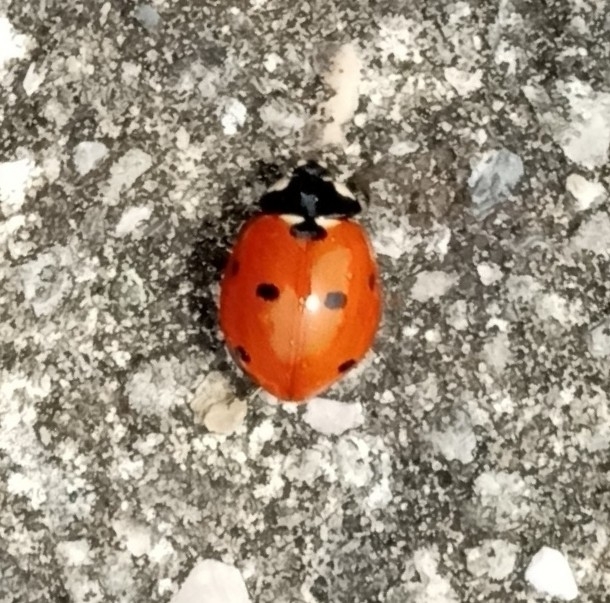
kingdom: Animalia
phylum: Arthropoda
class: Insecta
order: Coleoptera
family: Coccinellidae
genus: Coccinella
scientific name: Coccinella septempunctata
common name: Sevenspotted lady beetle
